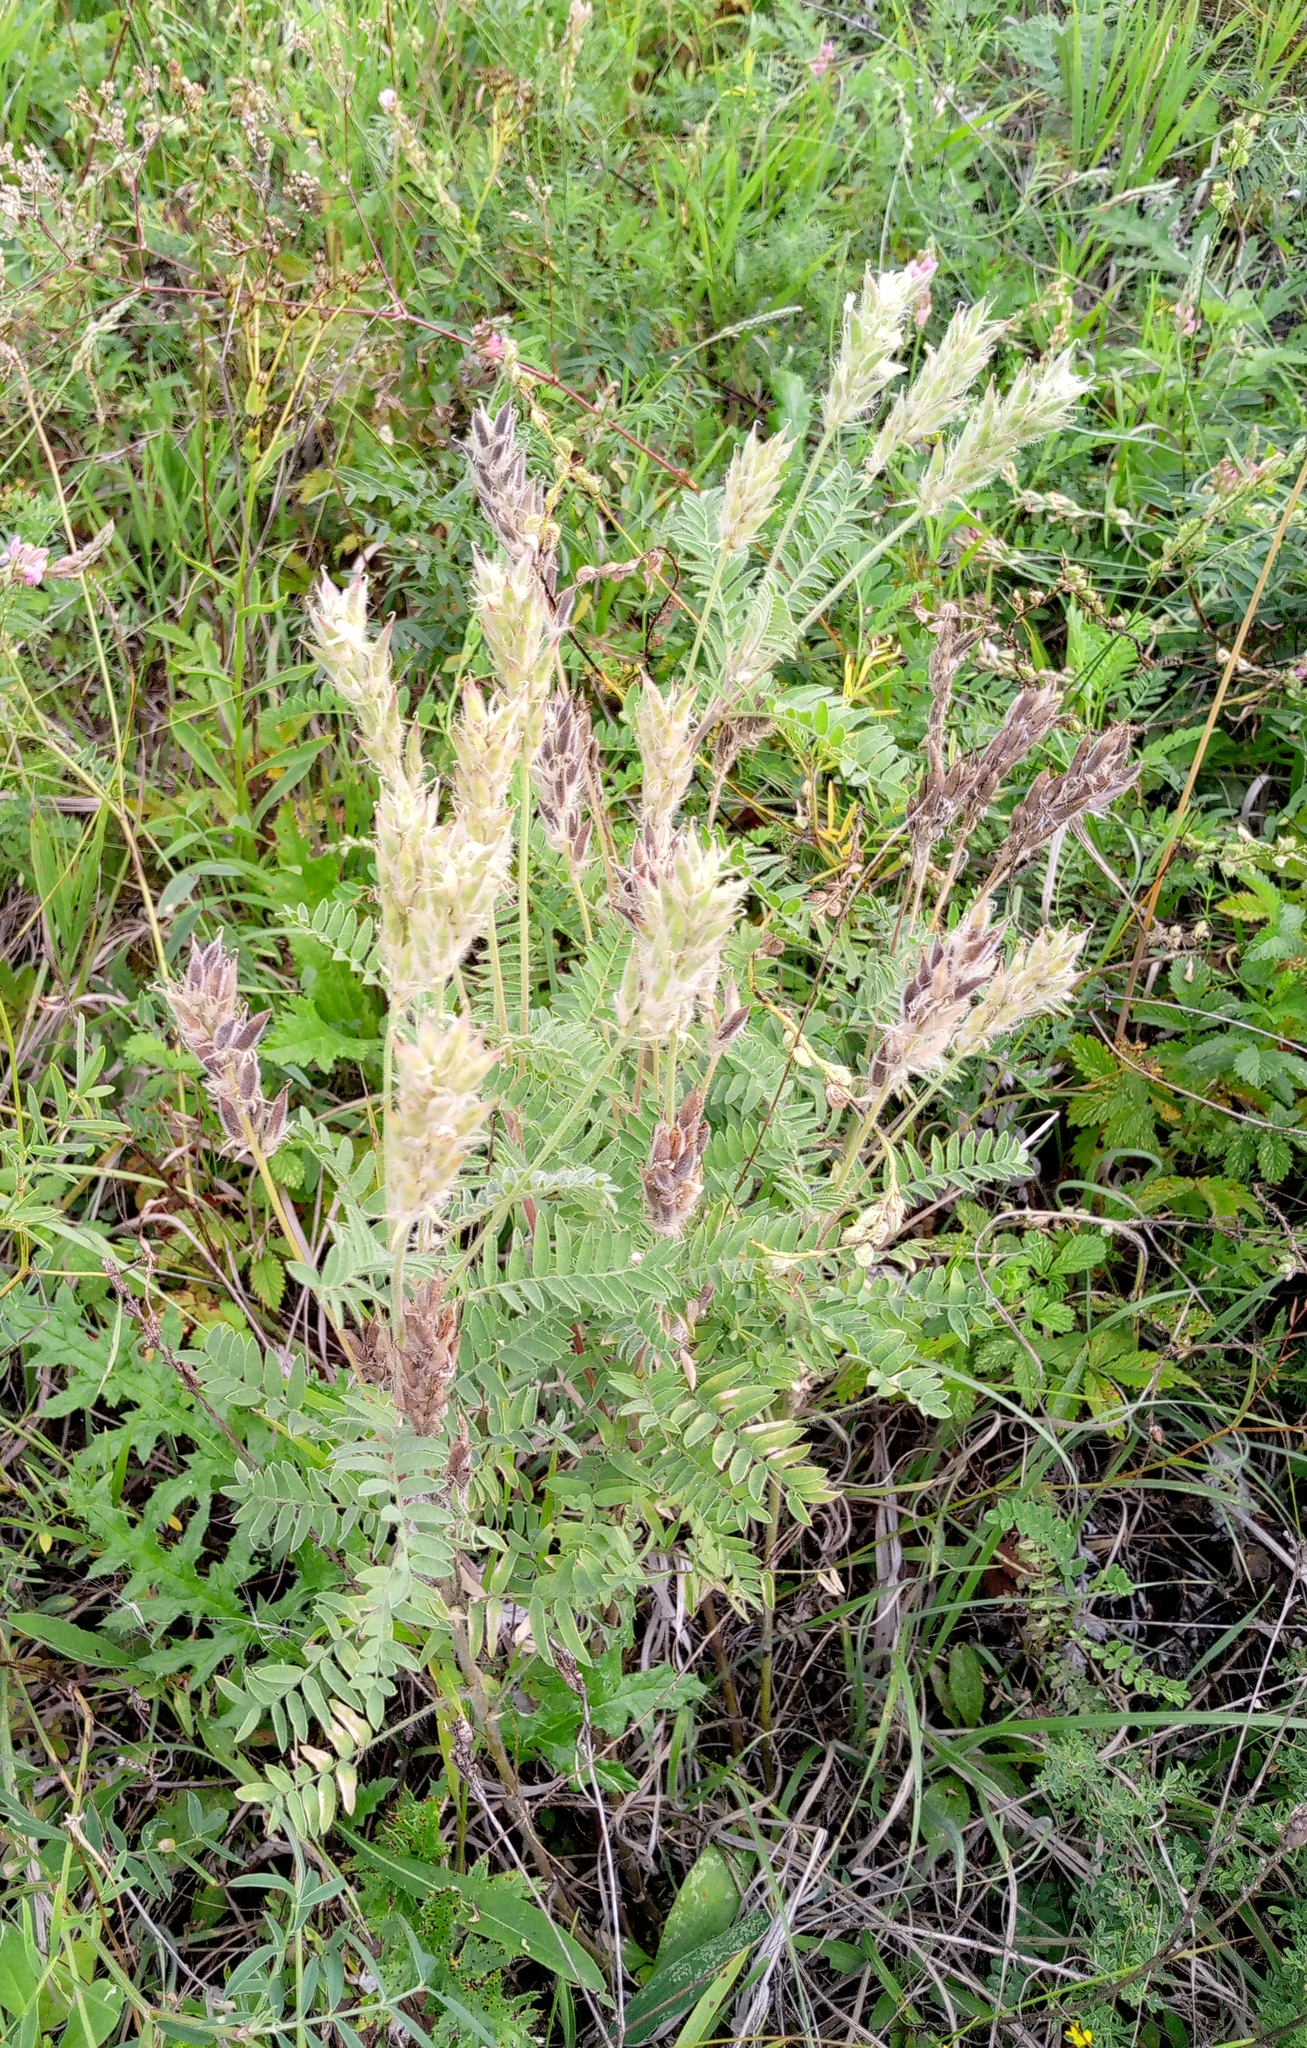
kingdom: Plantae
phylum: Tracheophyta
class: Magnoliopsida
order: Fabales
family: Fabaceae
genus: Oxytropis
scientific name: Oxytropis pilosa
